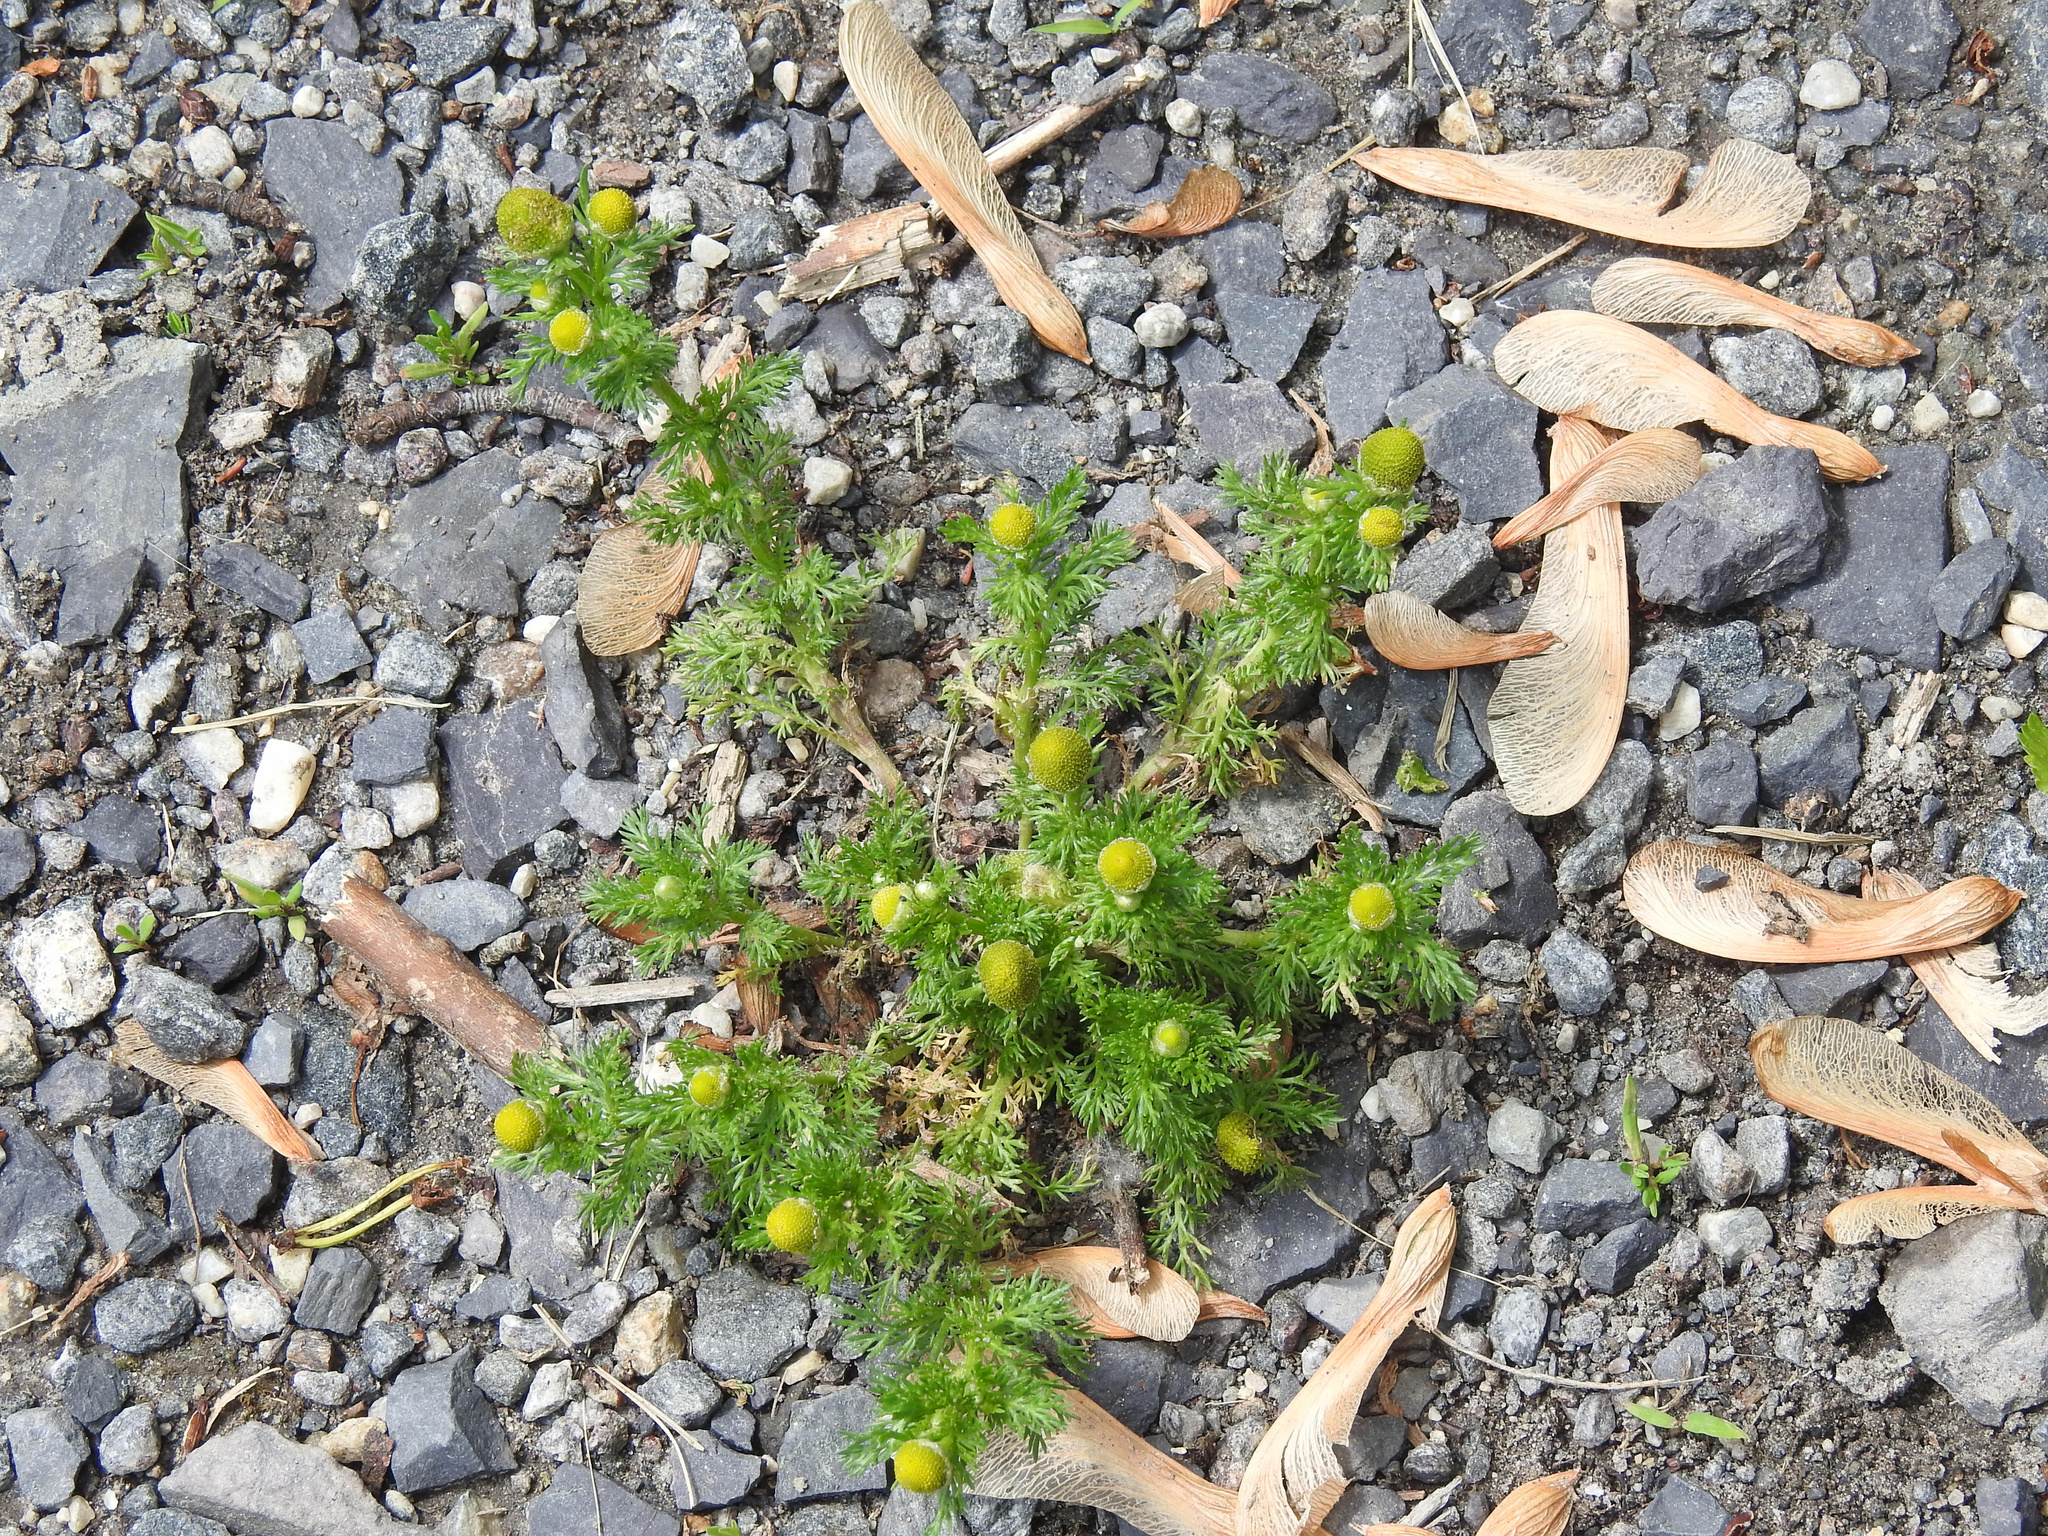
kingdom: Plantae
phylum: Tracheophyta
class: Magnoliopsida
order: Asterales
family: Asteraceae
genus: Matricaria
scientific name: Matricaria discoidea
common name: Disc mayweed
